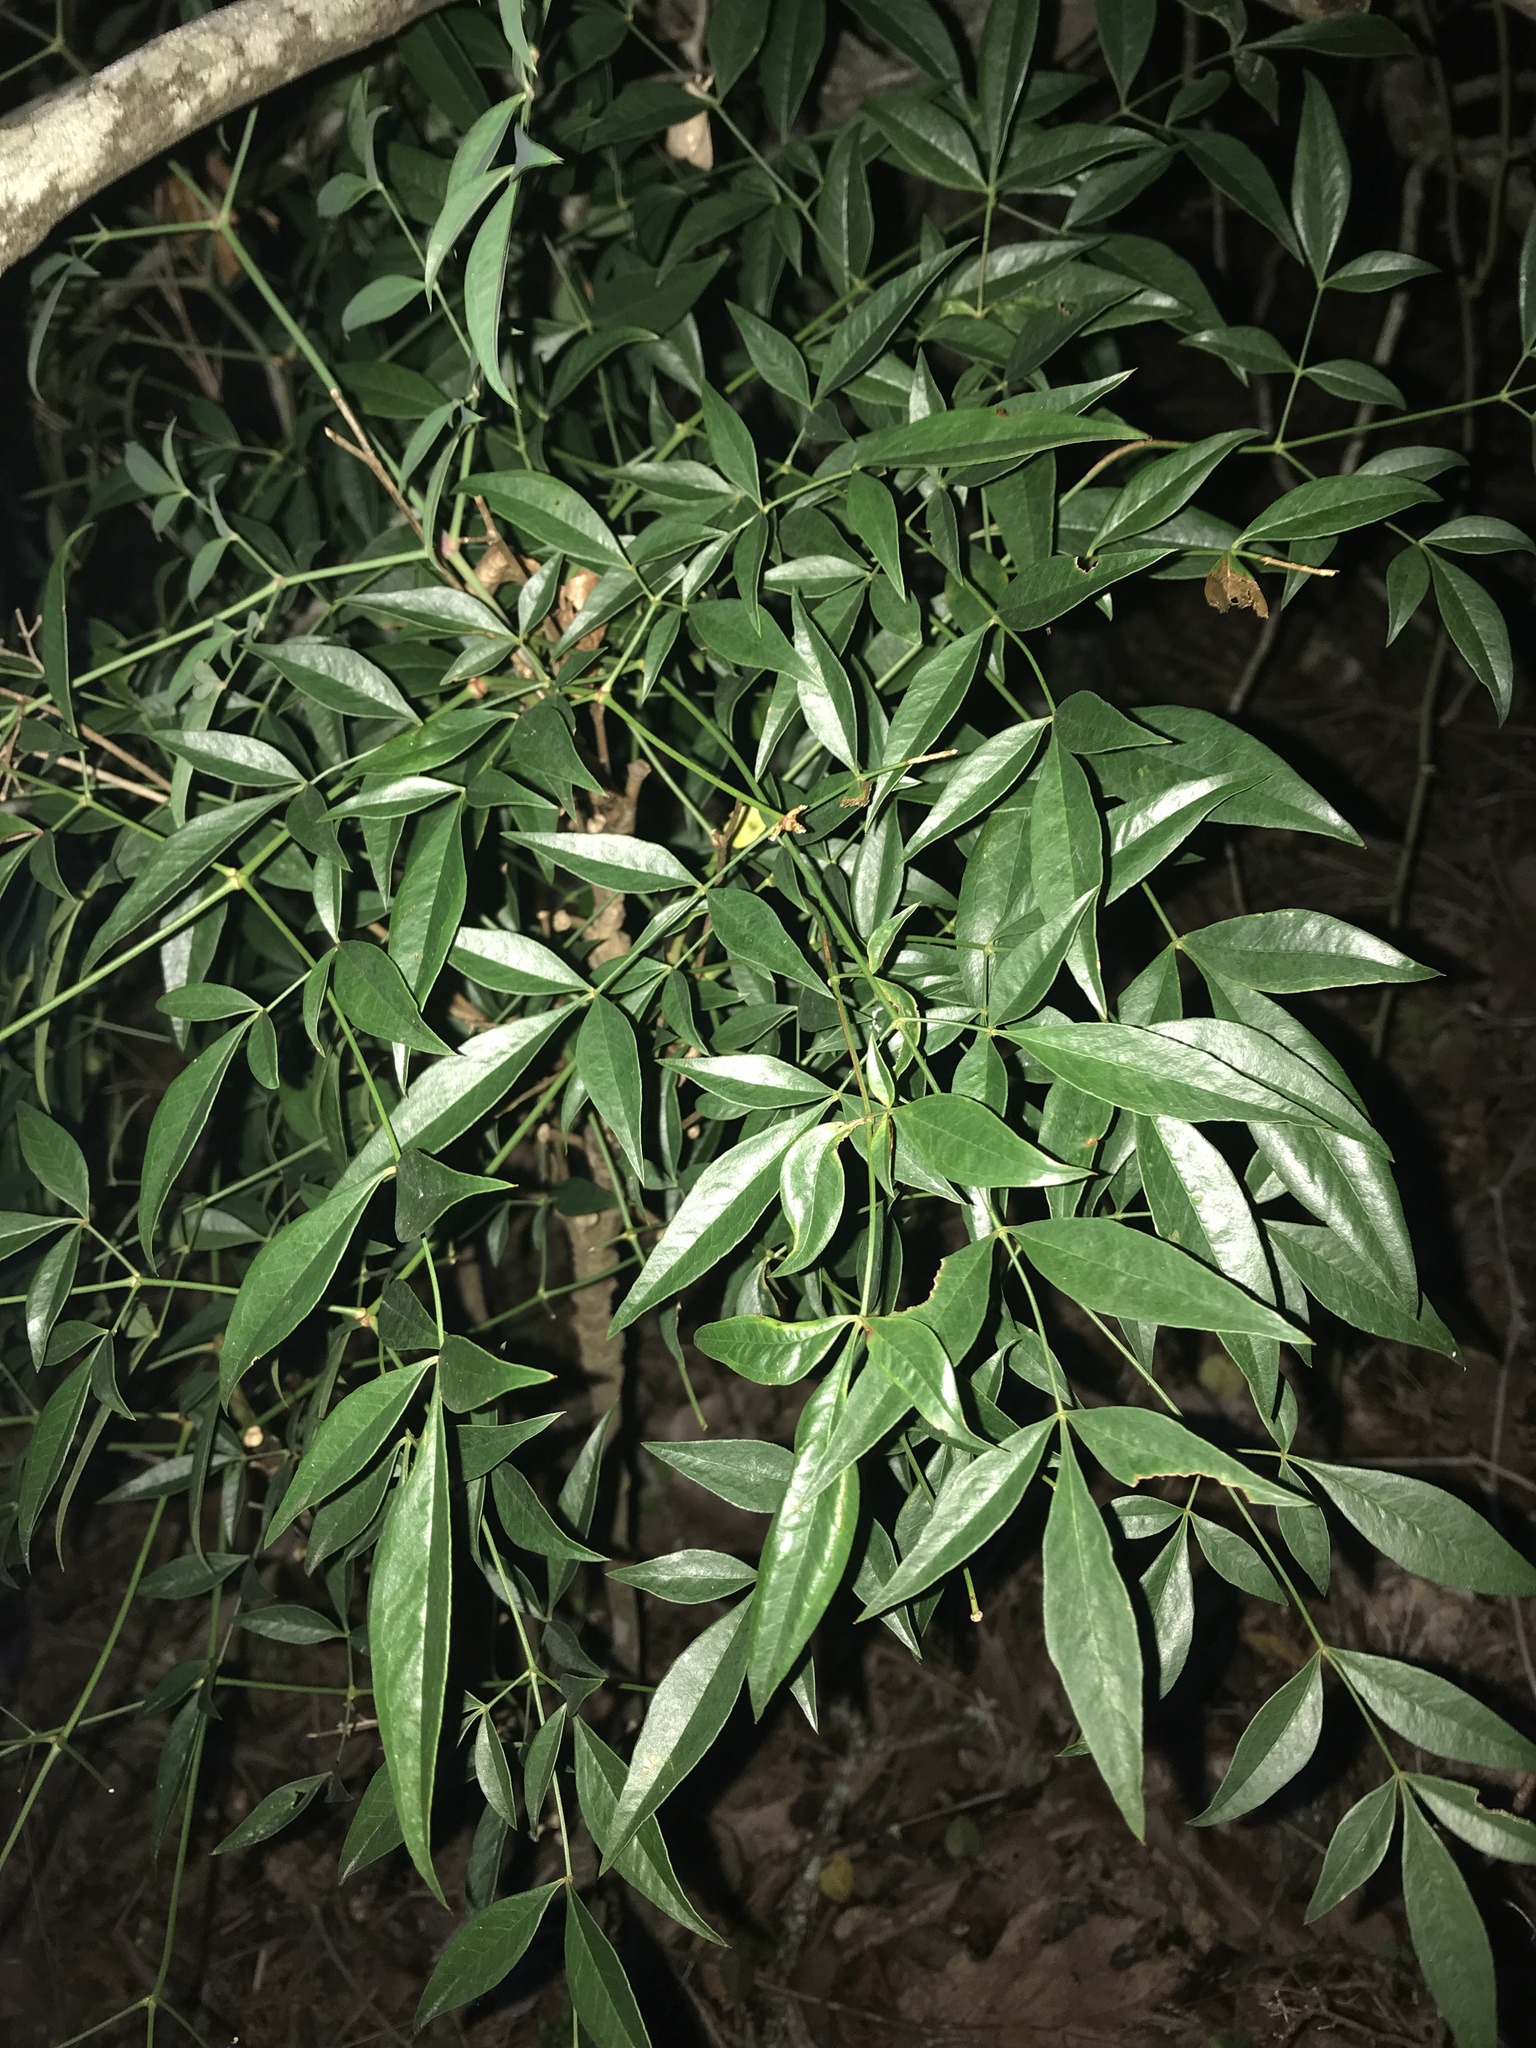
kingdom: Plantae
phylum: Tracheophyta
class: Magnoliopsida
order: Ranunculales
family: Berberidaceae
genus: Nandina
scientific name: Nandina domestica
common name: Sacred bamboo
